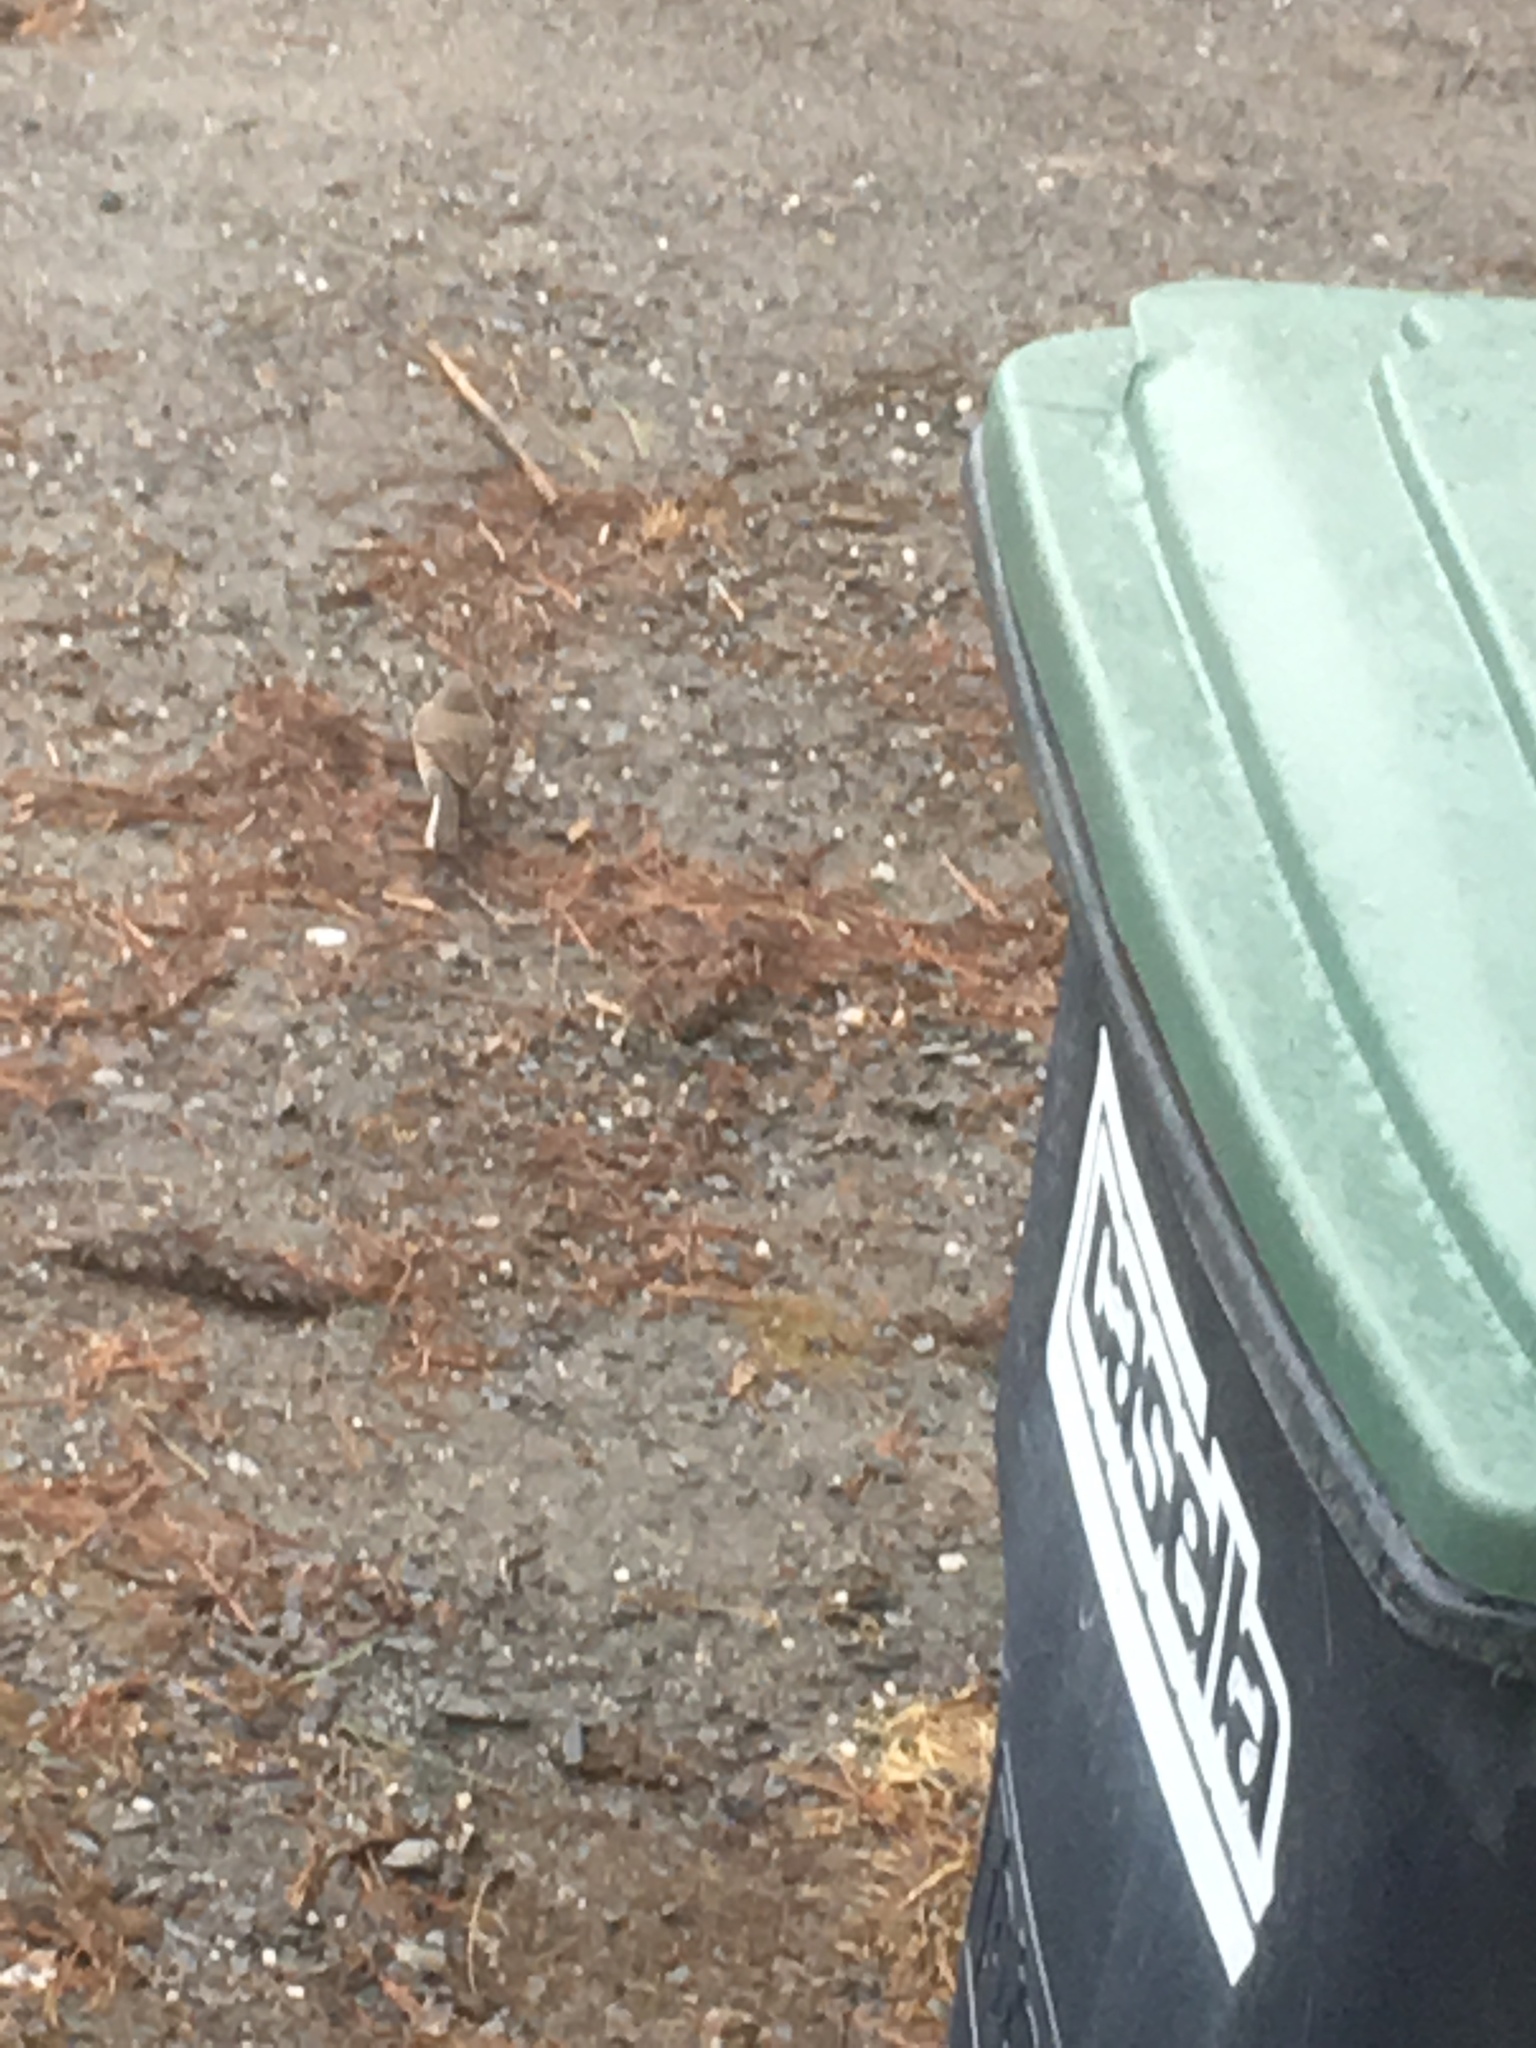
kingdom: Animalia
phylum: Chordata
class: Aves
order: Passeriformes
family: Passerellidae
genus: Junco
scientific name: Junco hyemalis
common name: Dark-eyed junco
